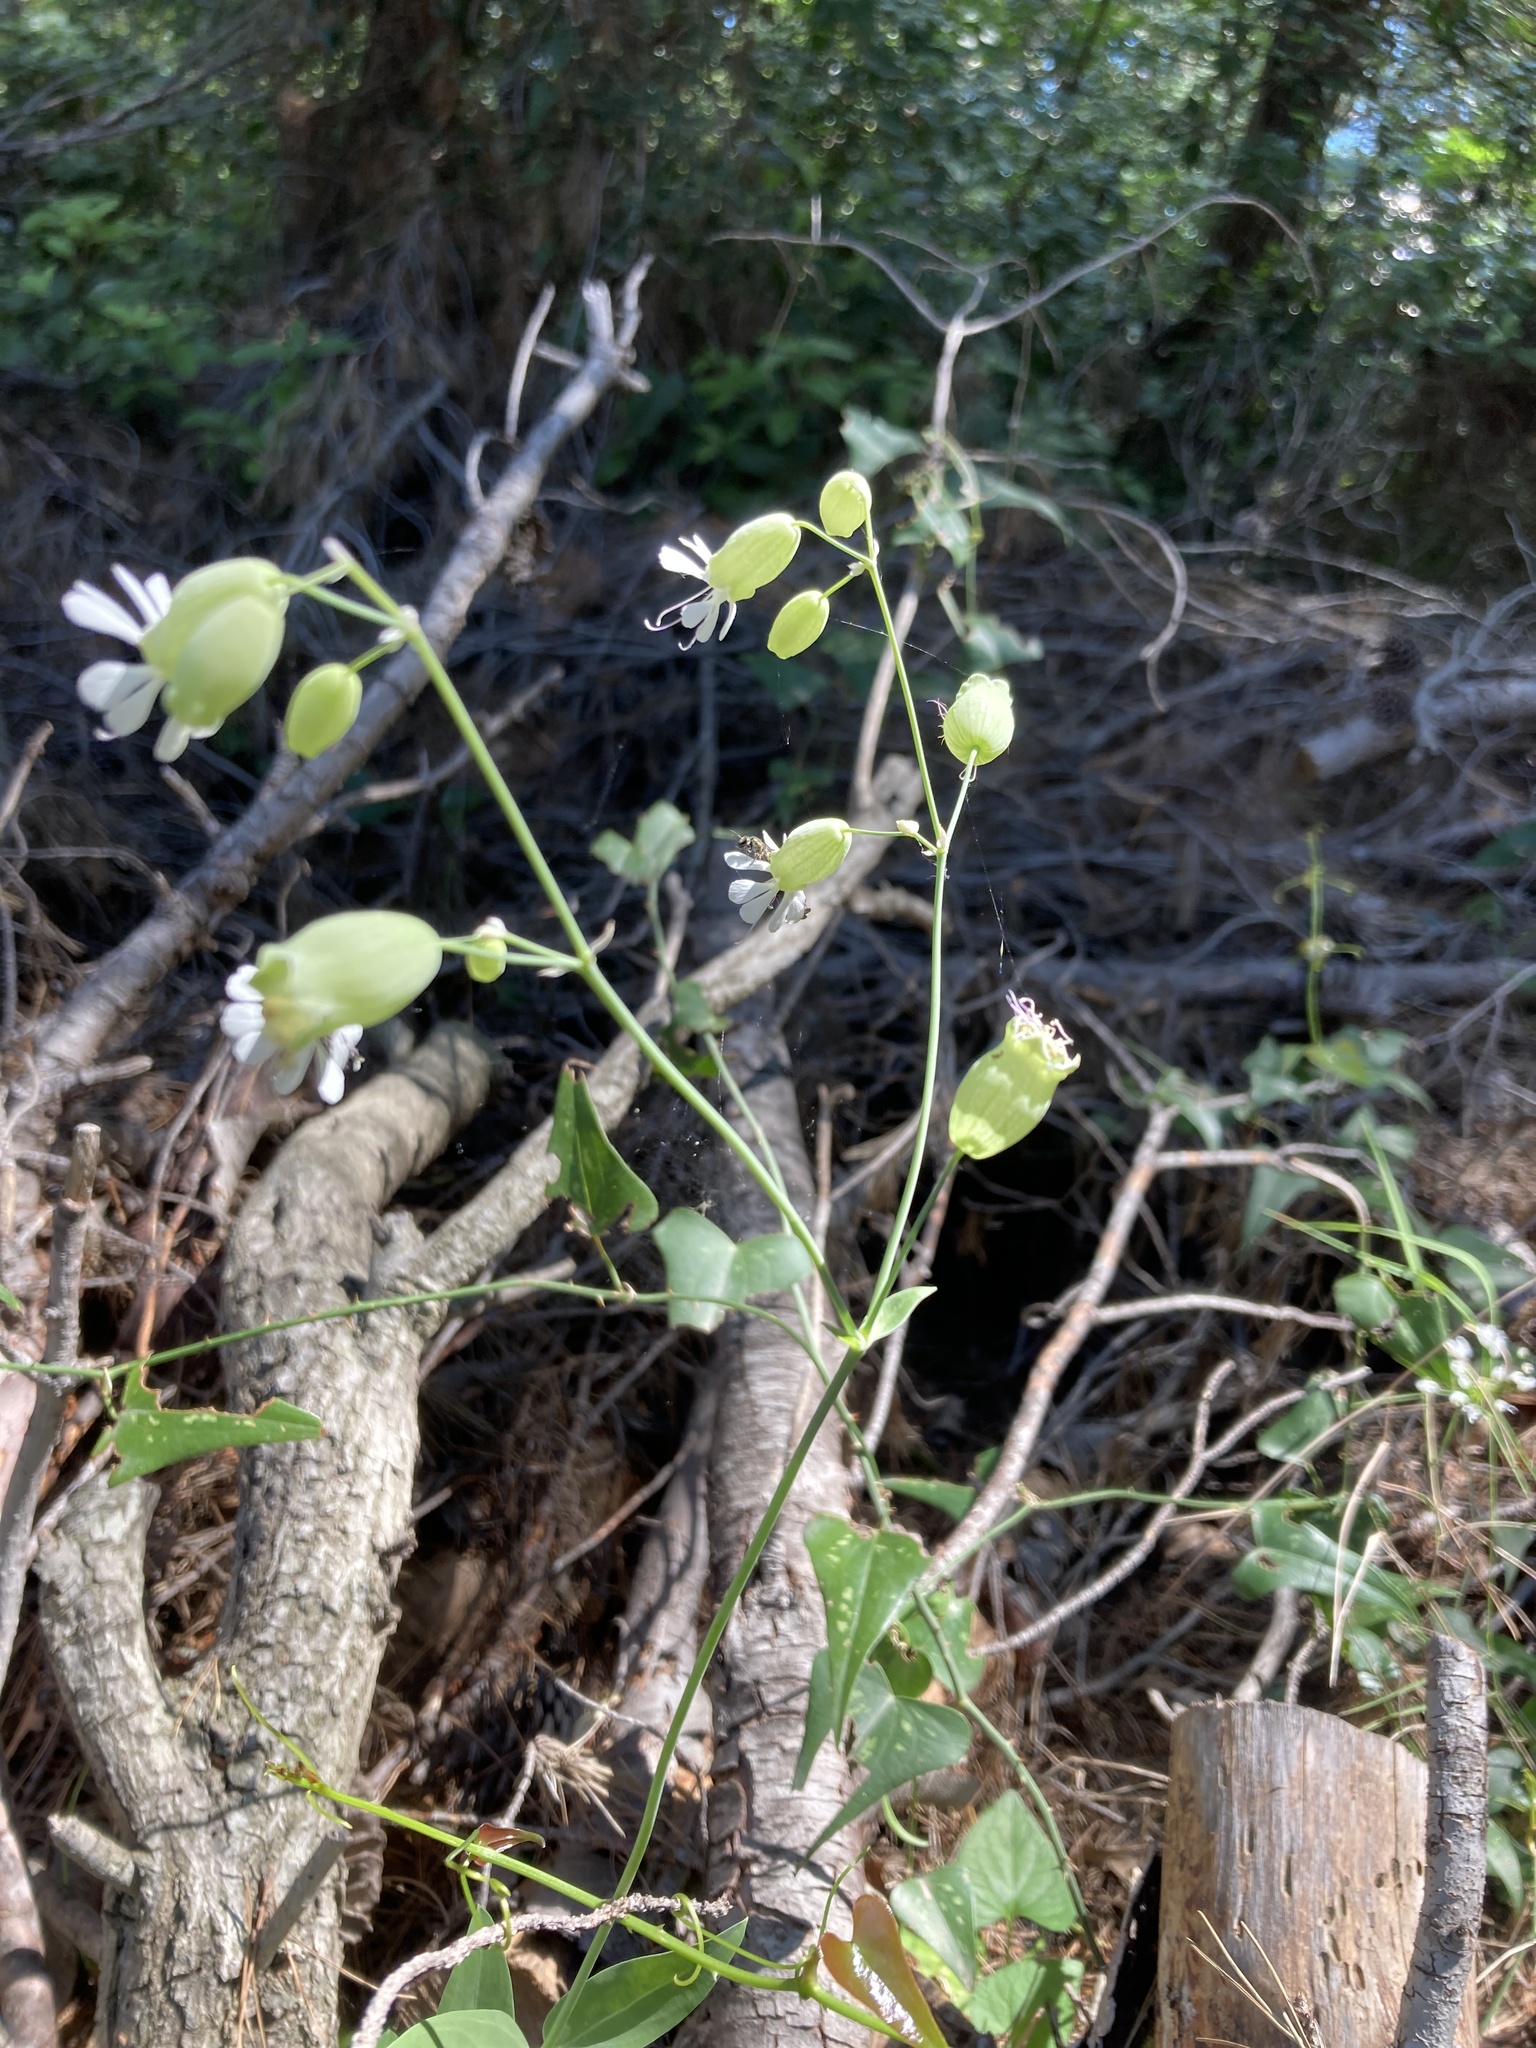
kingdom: Plantae
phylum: Tracheophyta
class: Magnoliopsida
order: Caryophyllales
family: Caryophyllaceae
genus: Silene
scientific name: Silene vulgaris
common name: Bladder campion
